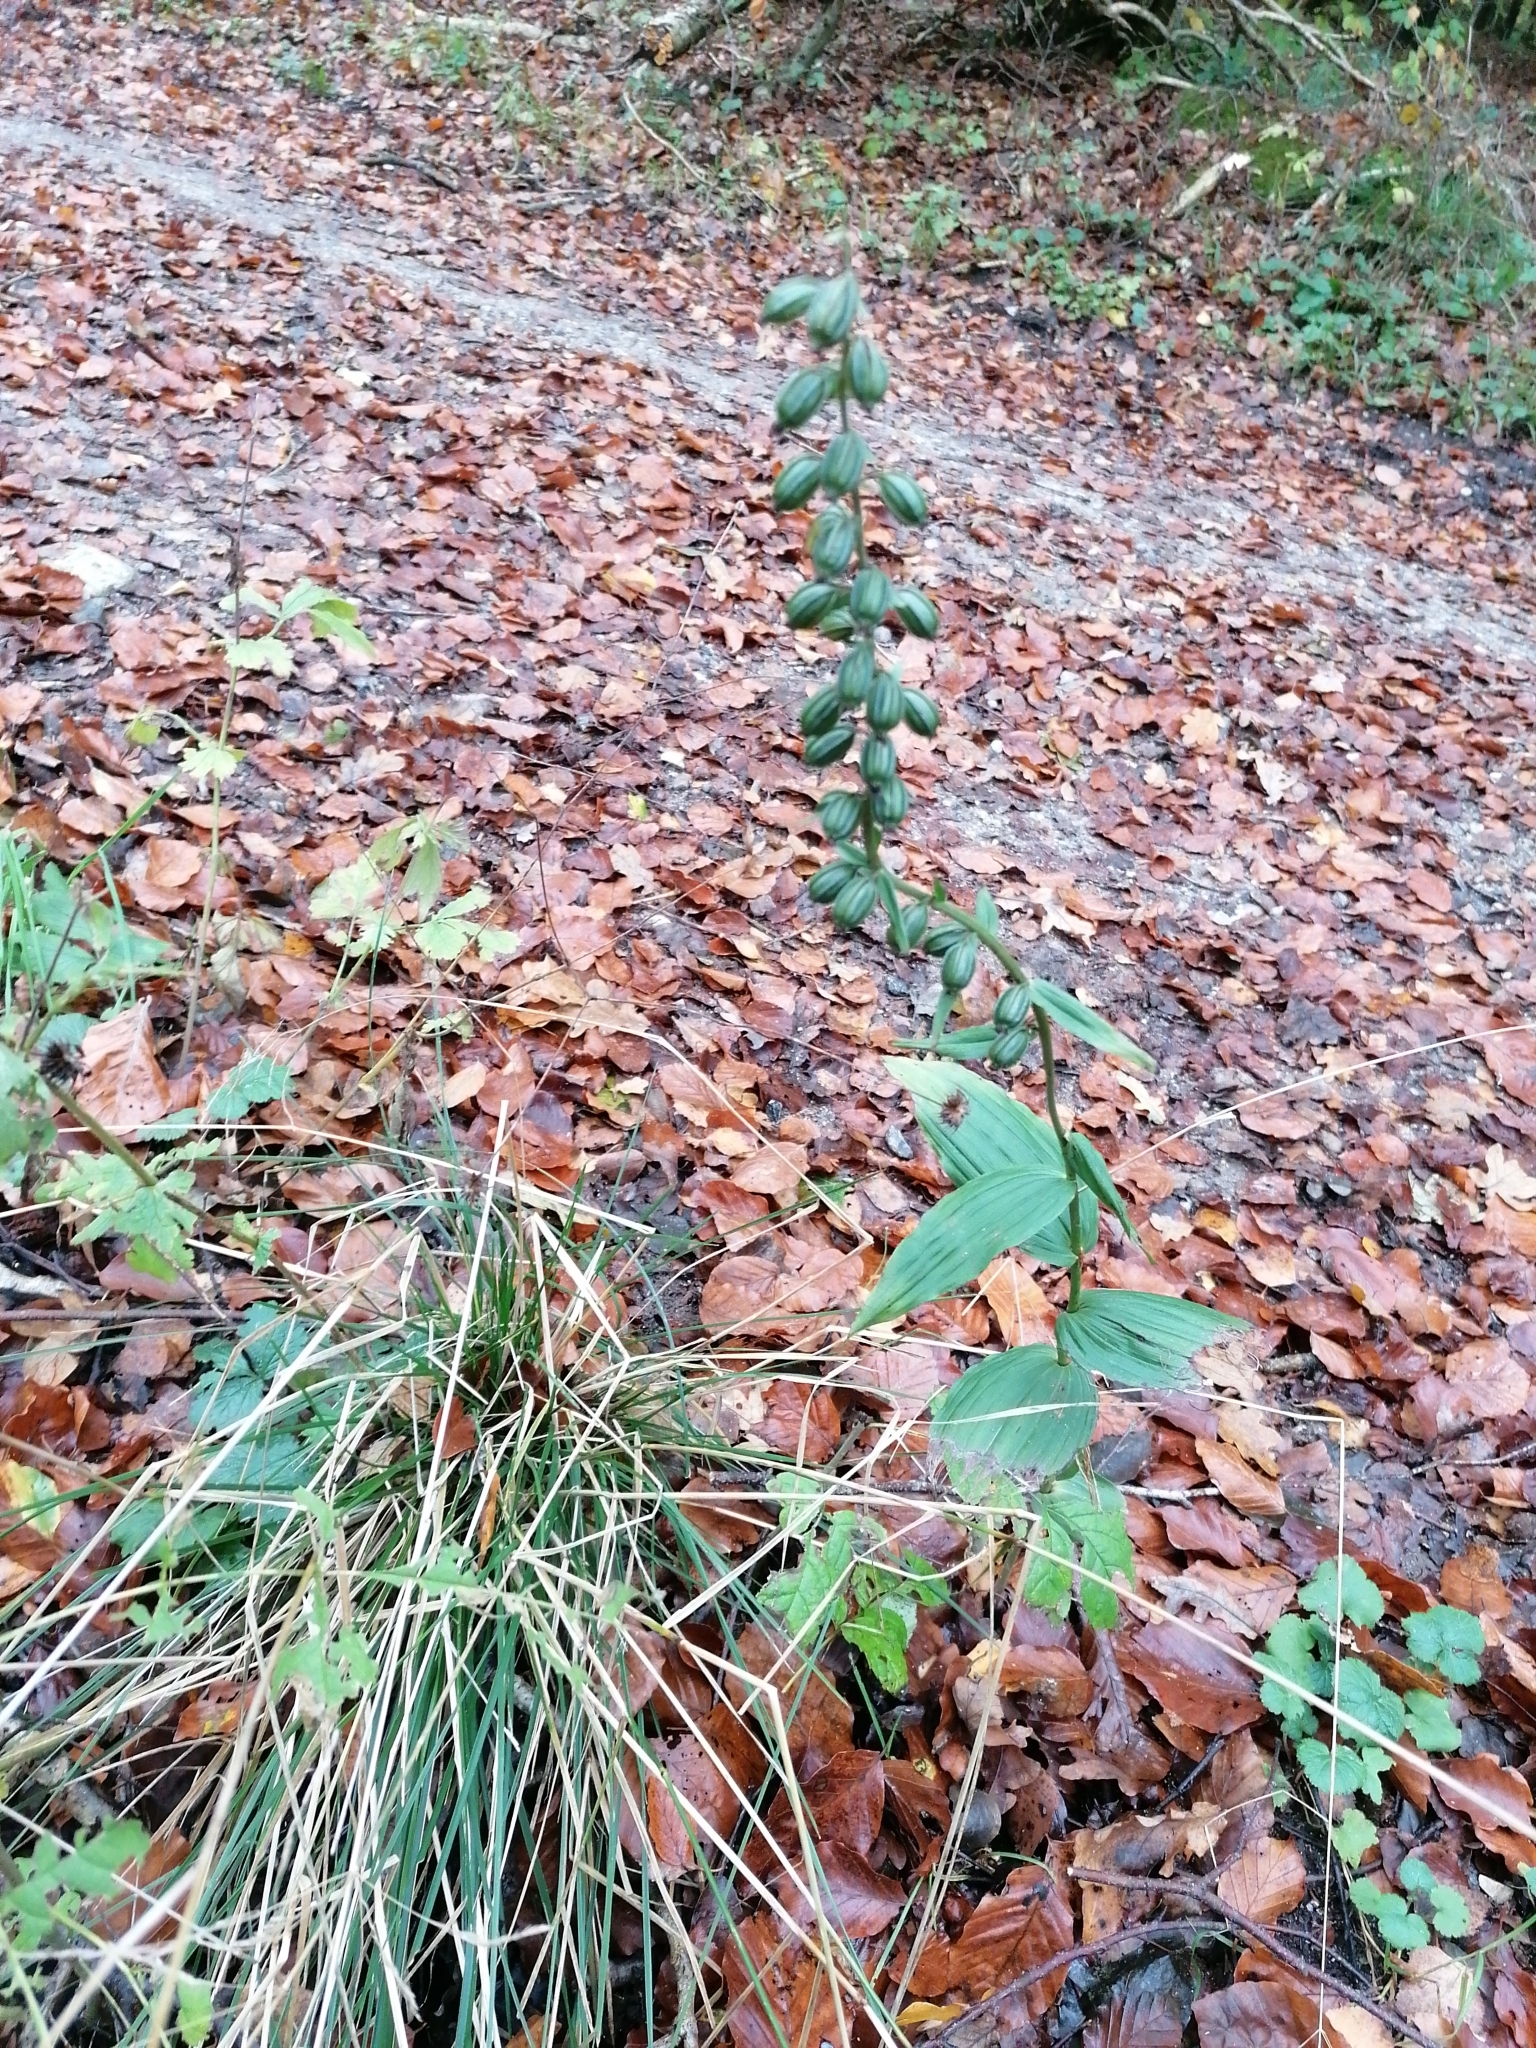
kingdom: Plantae
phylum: Tracheophyta
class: Liliopsida
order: Asparagales
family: Orchidaceae
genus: Epipactis
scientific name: Epipactis helleborine
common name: Broad-leaved helleborine
